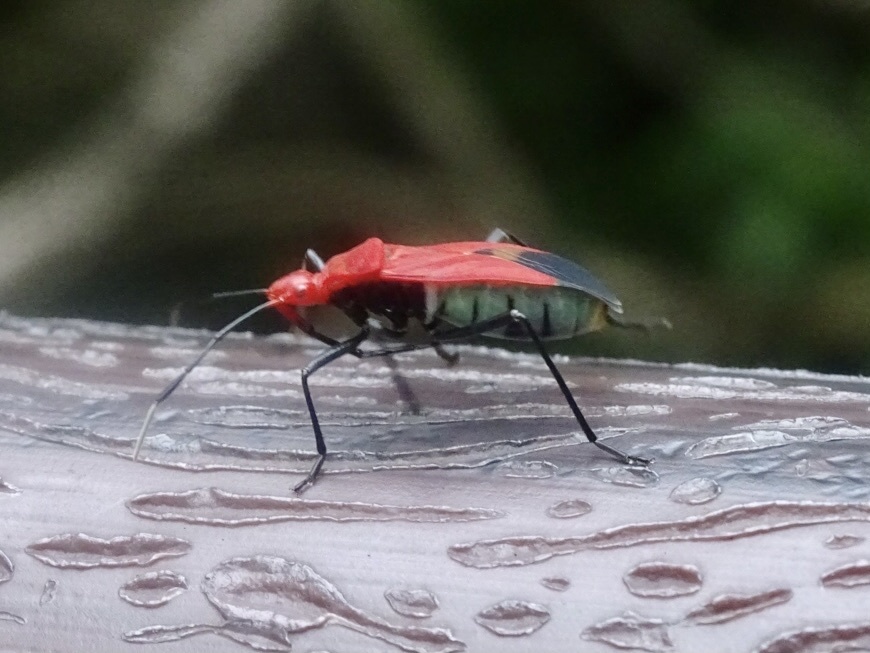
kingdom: Animalia
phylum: Arthropoda
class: Insecta
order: Hemiptera
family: Pyrrhocoridae
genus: Dindymus
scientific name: Dindymus
